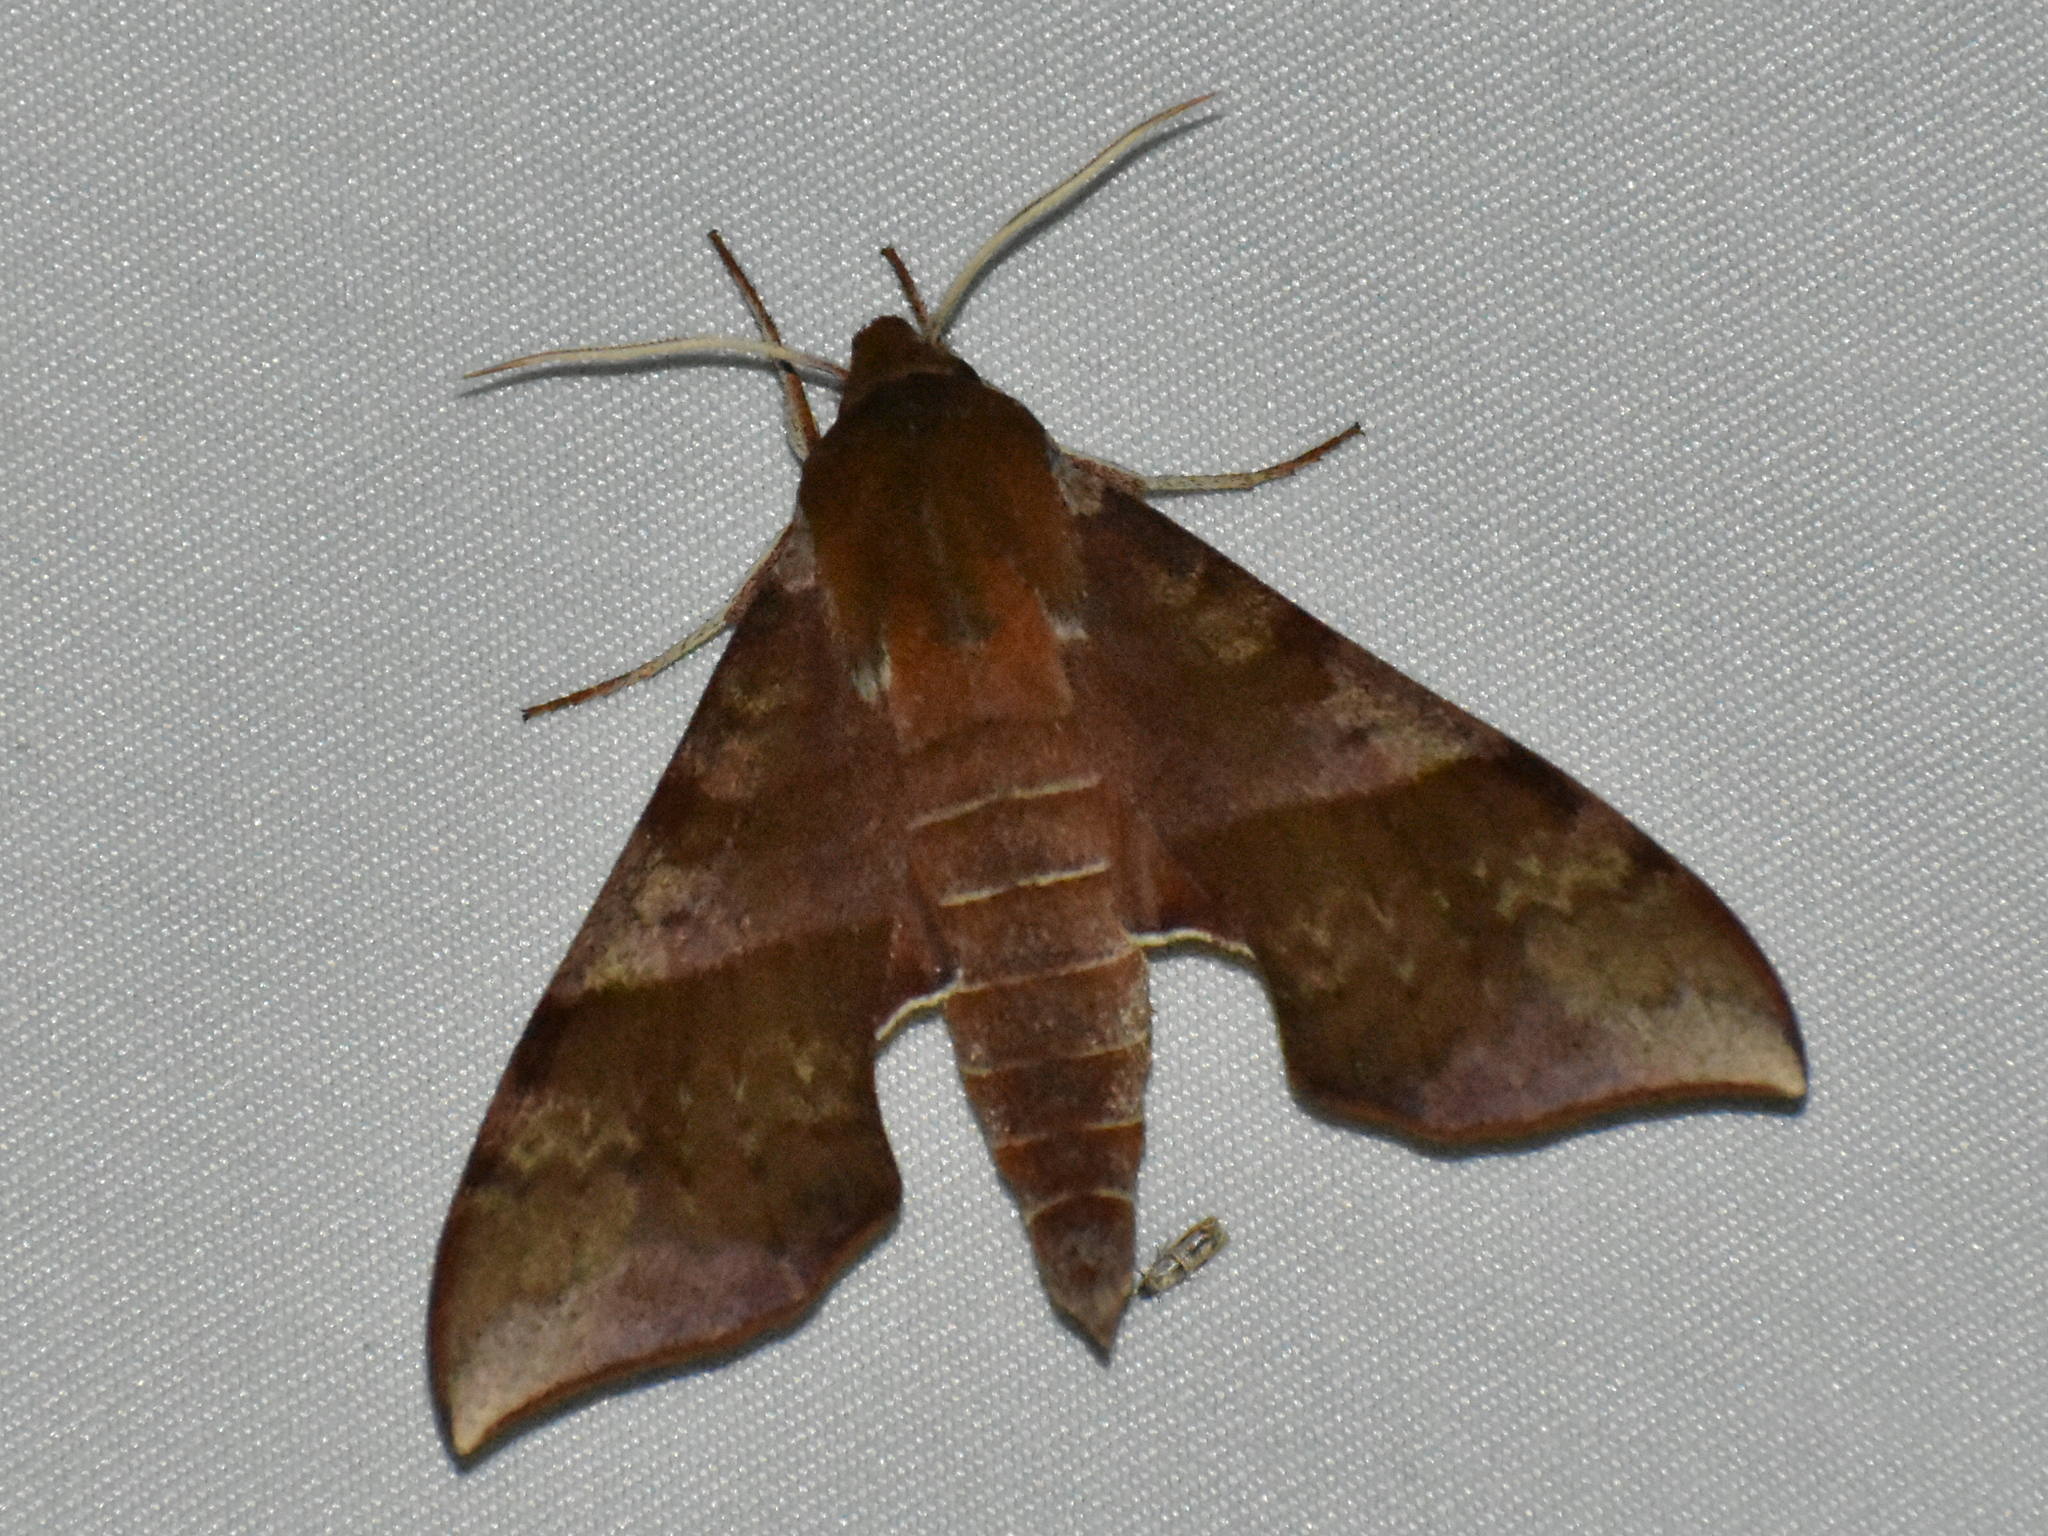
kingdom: Animalia
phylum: Arthropoda
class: Insecta
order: Lepidoptera
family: Sphingidae
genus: Darapsa
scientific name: Darapsa choerilus
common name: Azalea sphinx
